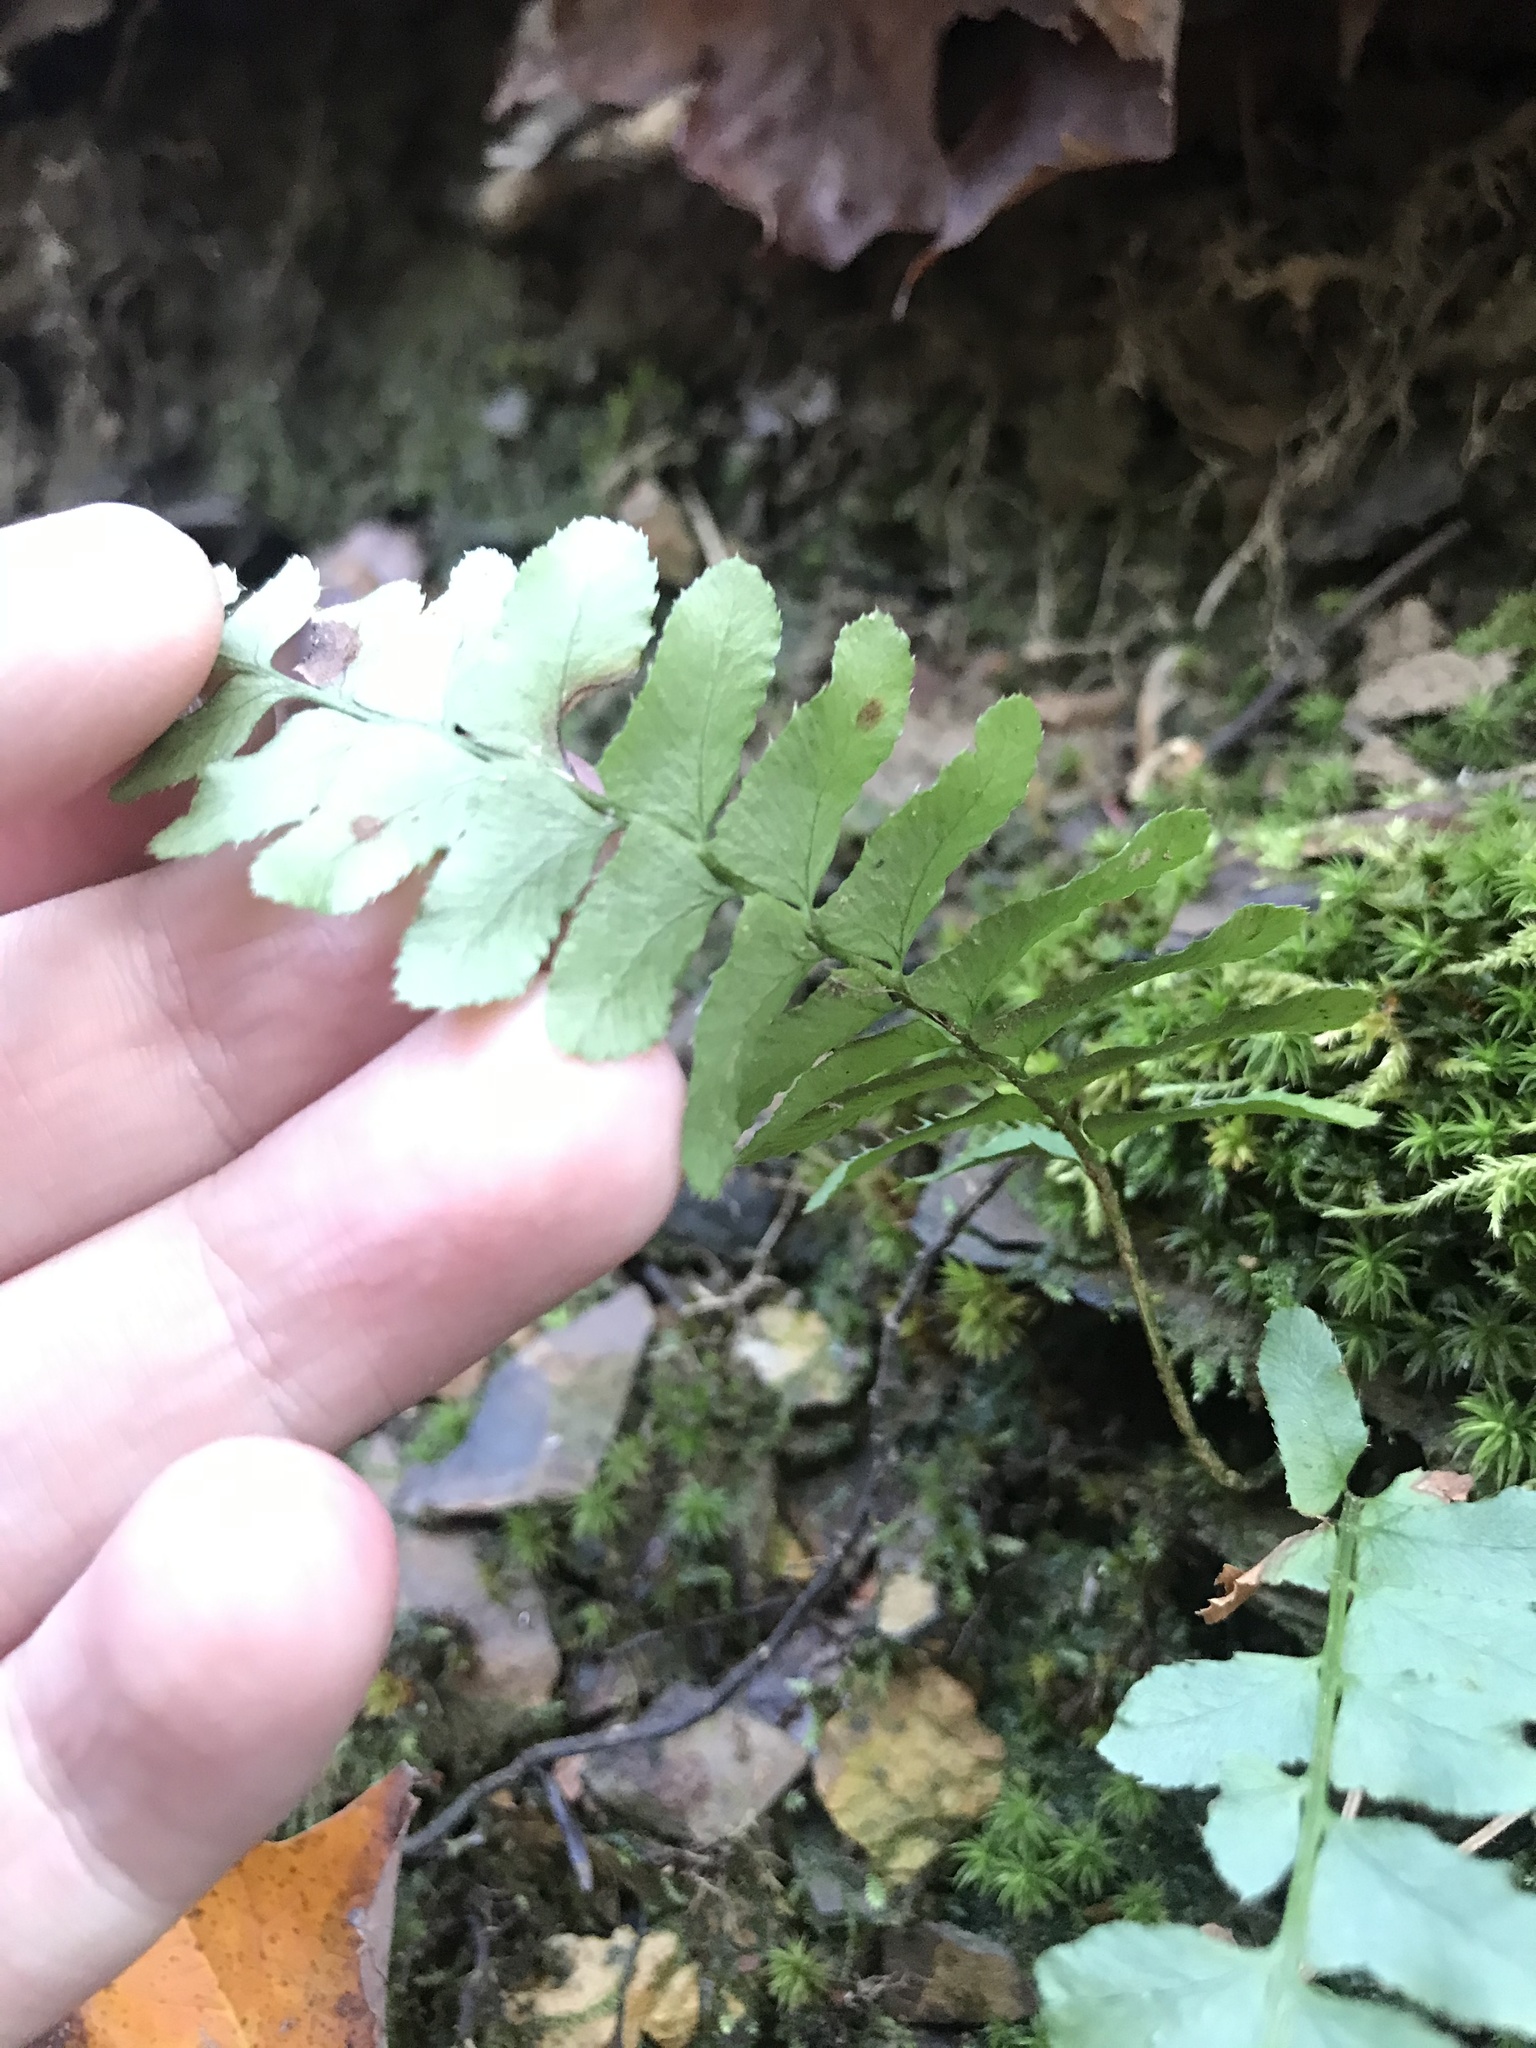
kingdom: Plantae
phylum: Tracheophyta
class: Polypodiopsida
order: Polypodiales
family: Dryopteridaceae
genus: Polystichum
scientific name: Polystichum acrostichoides
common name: Christmas fern
